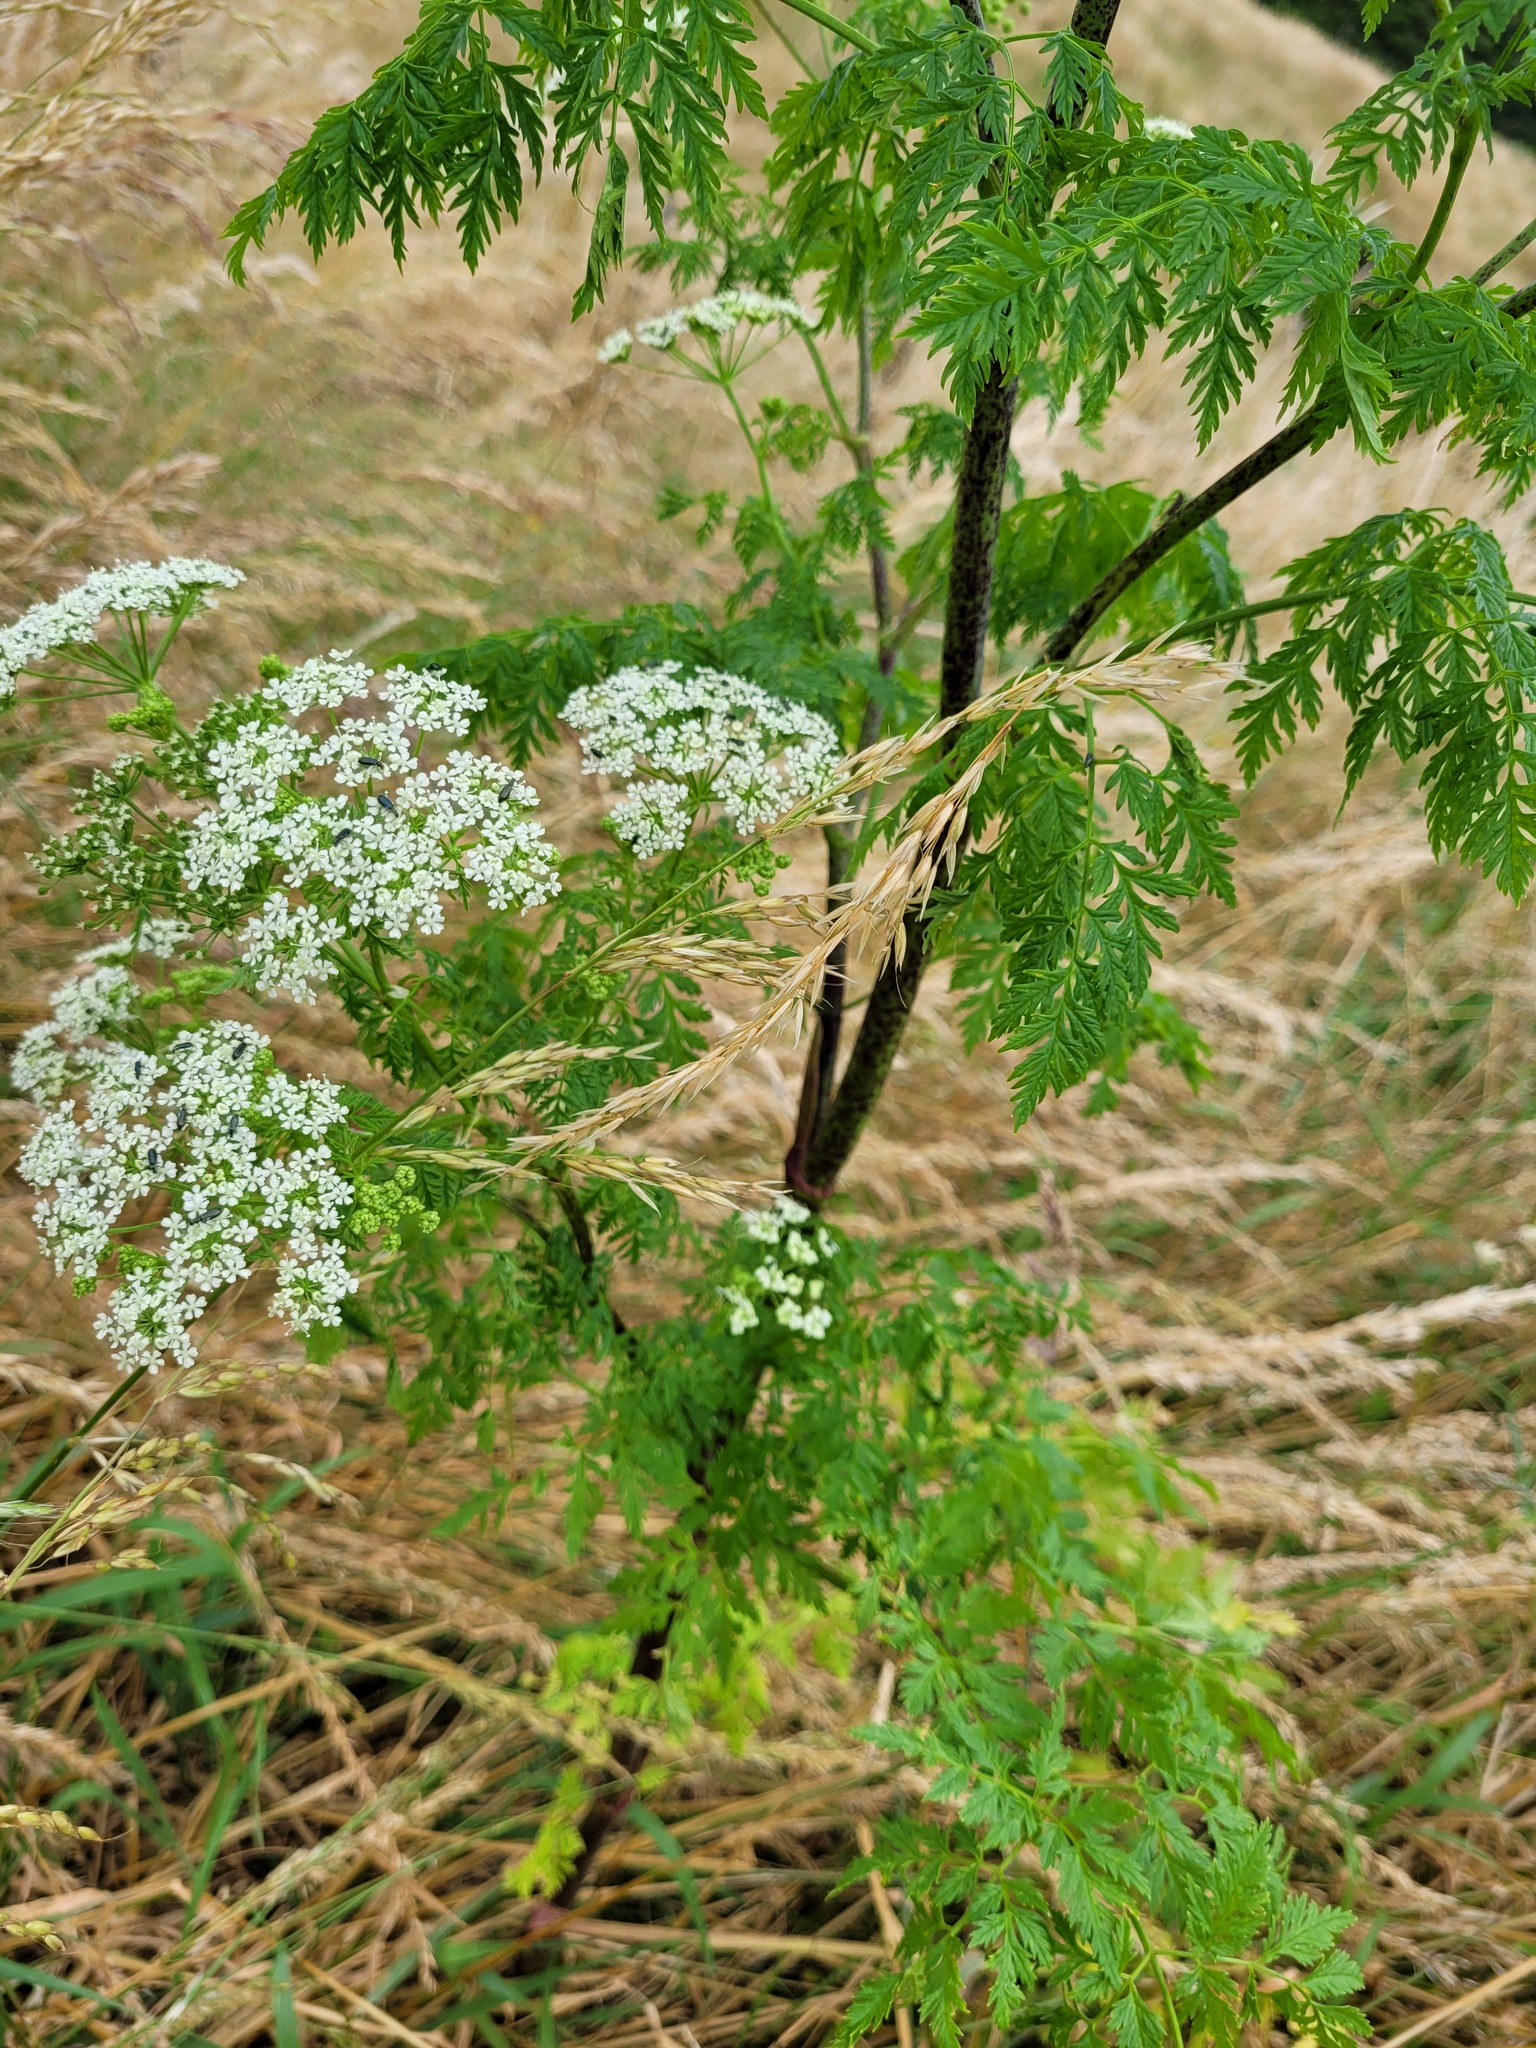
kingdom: Plantae
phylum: Tracheophyta
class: Magnoliopsida
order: Apiales
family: Apiaceae
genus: Conium
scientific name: Conium maculatum
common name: Hemlock
